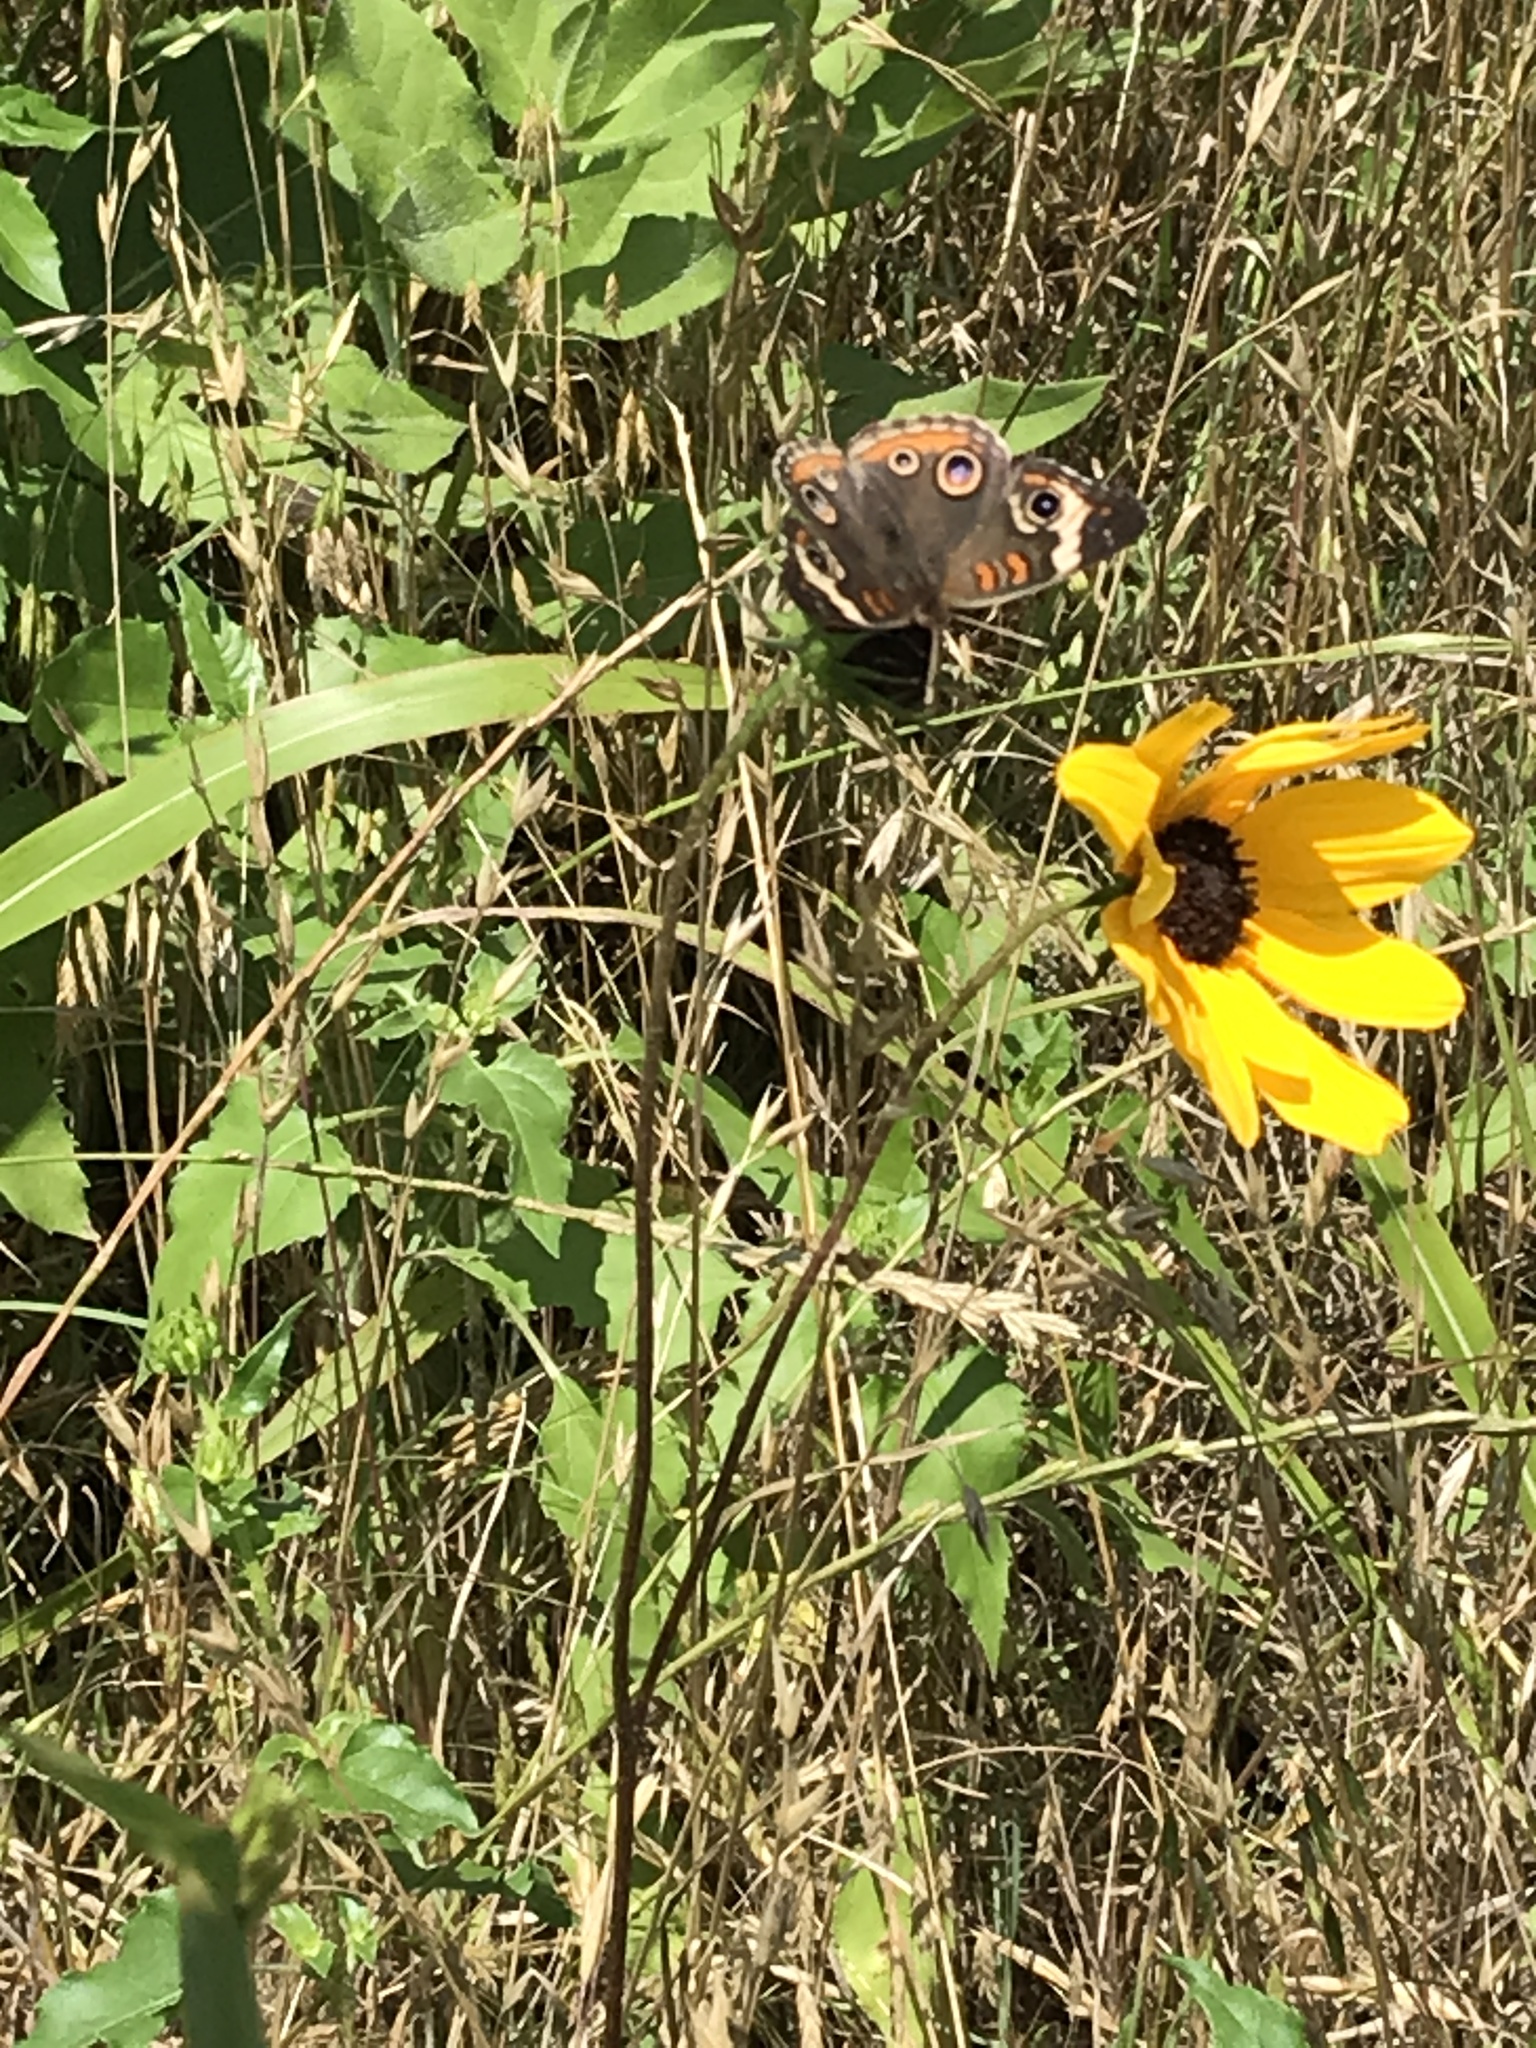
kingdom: Animalia
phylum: Arthropoda
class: Insecta
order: Lepidoptera
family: Nymphalidae
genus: Junonia
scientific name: Junonia coenia
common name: Common buckeye
